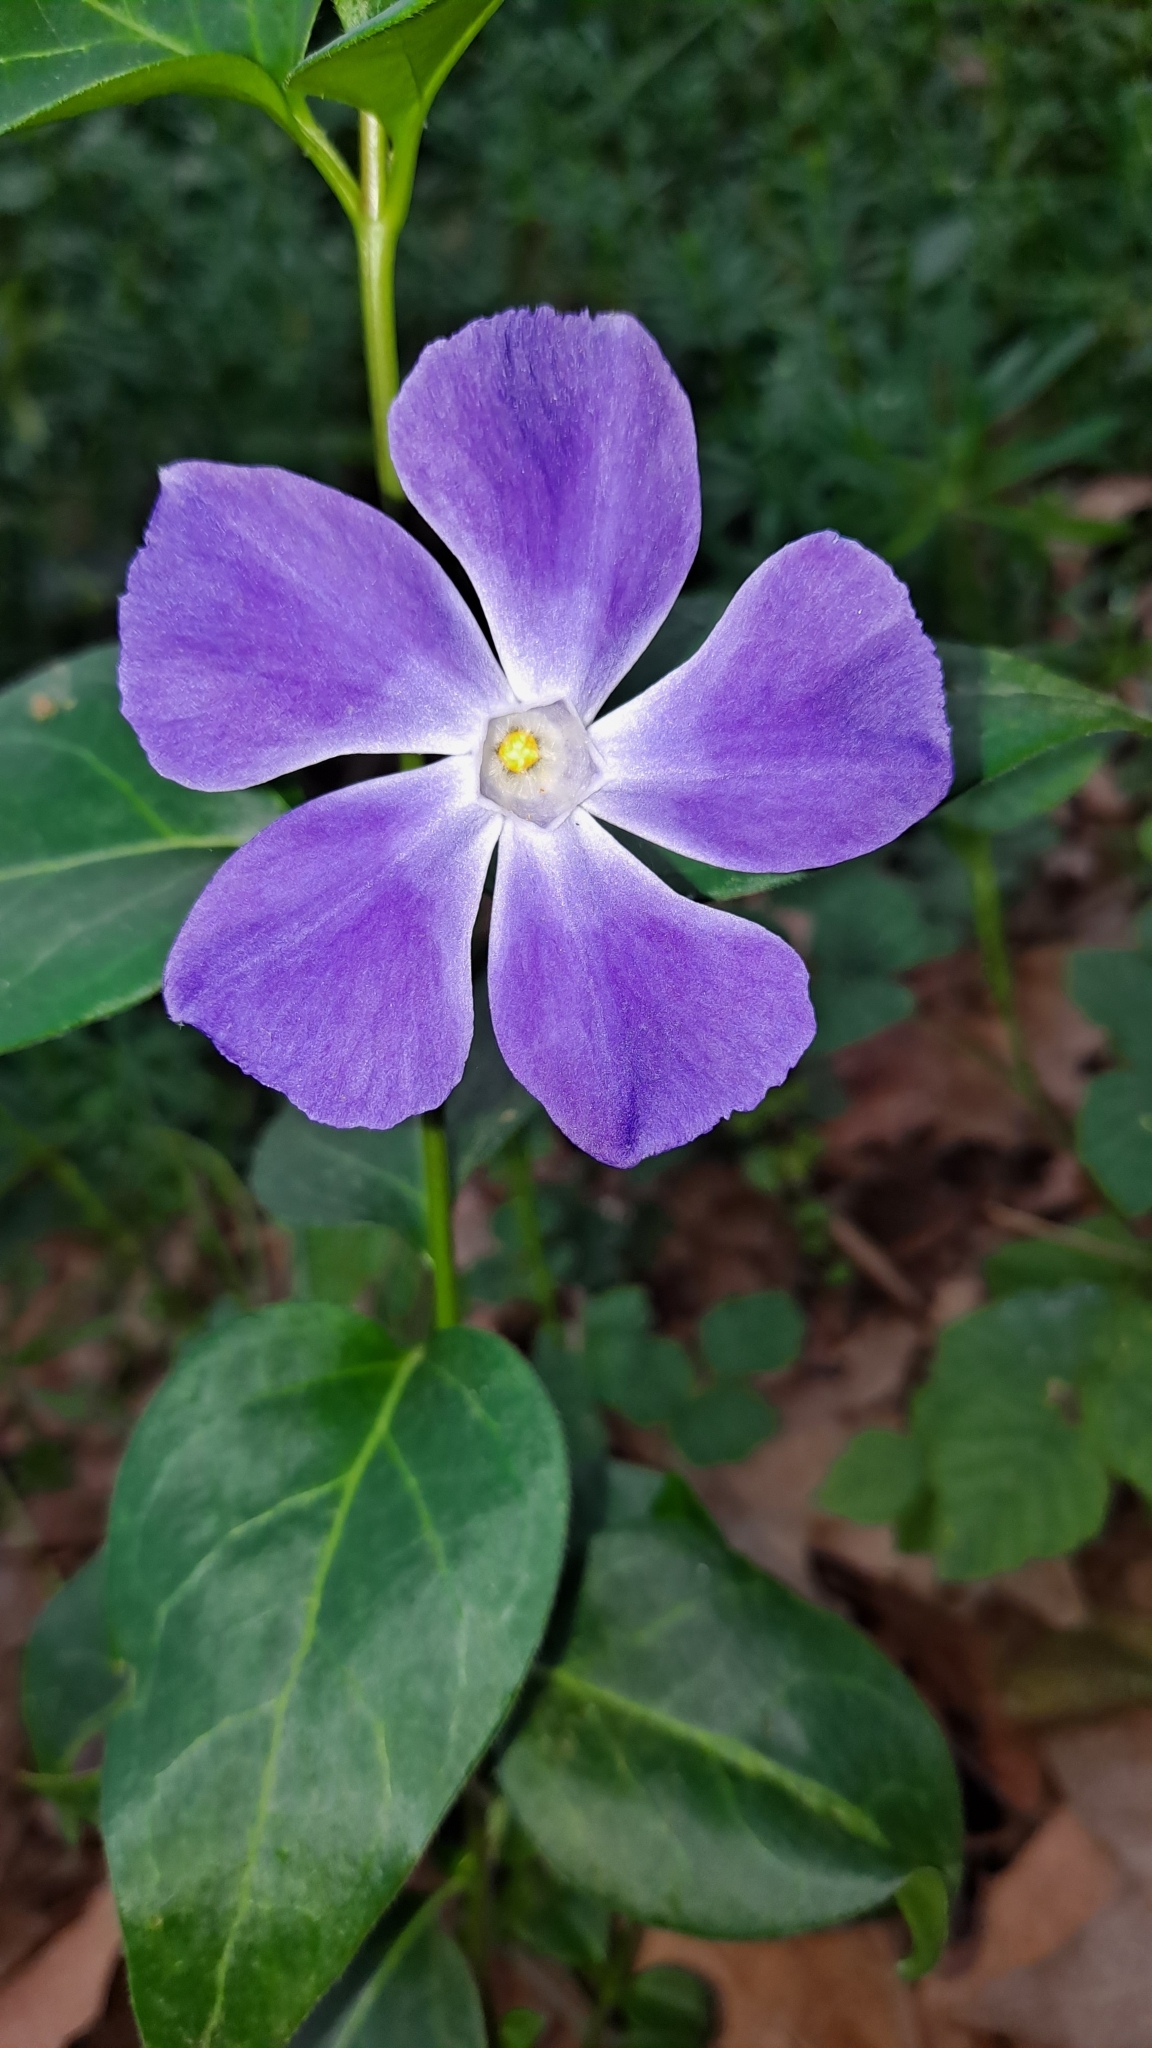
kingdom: Plantae
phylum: Tracheophyta
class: Magnoliopsida
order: Gentianales
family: Apocynaceae
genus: Vinca
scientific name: Vinca major
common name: Greater periwinkle
